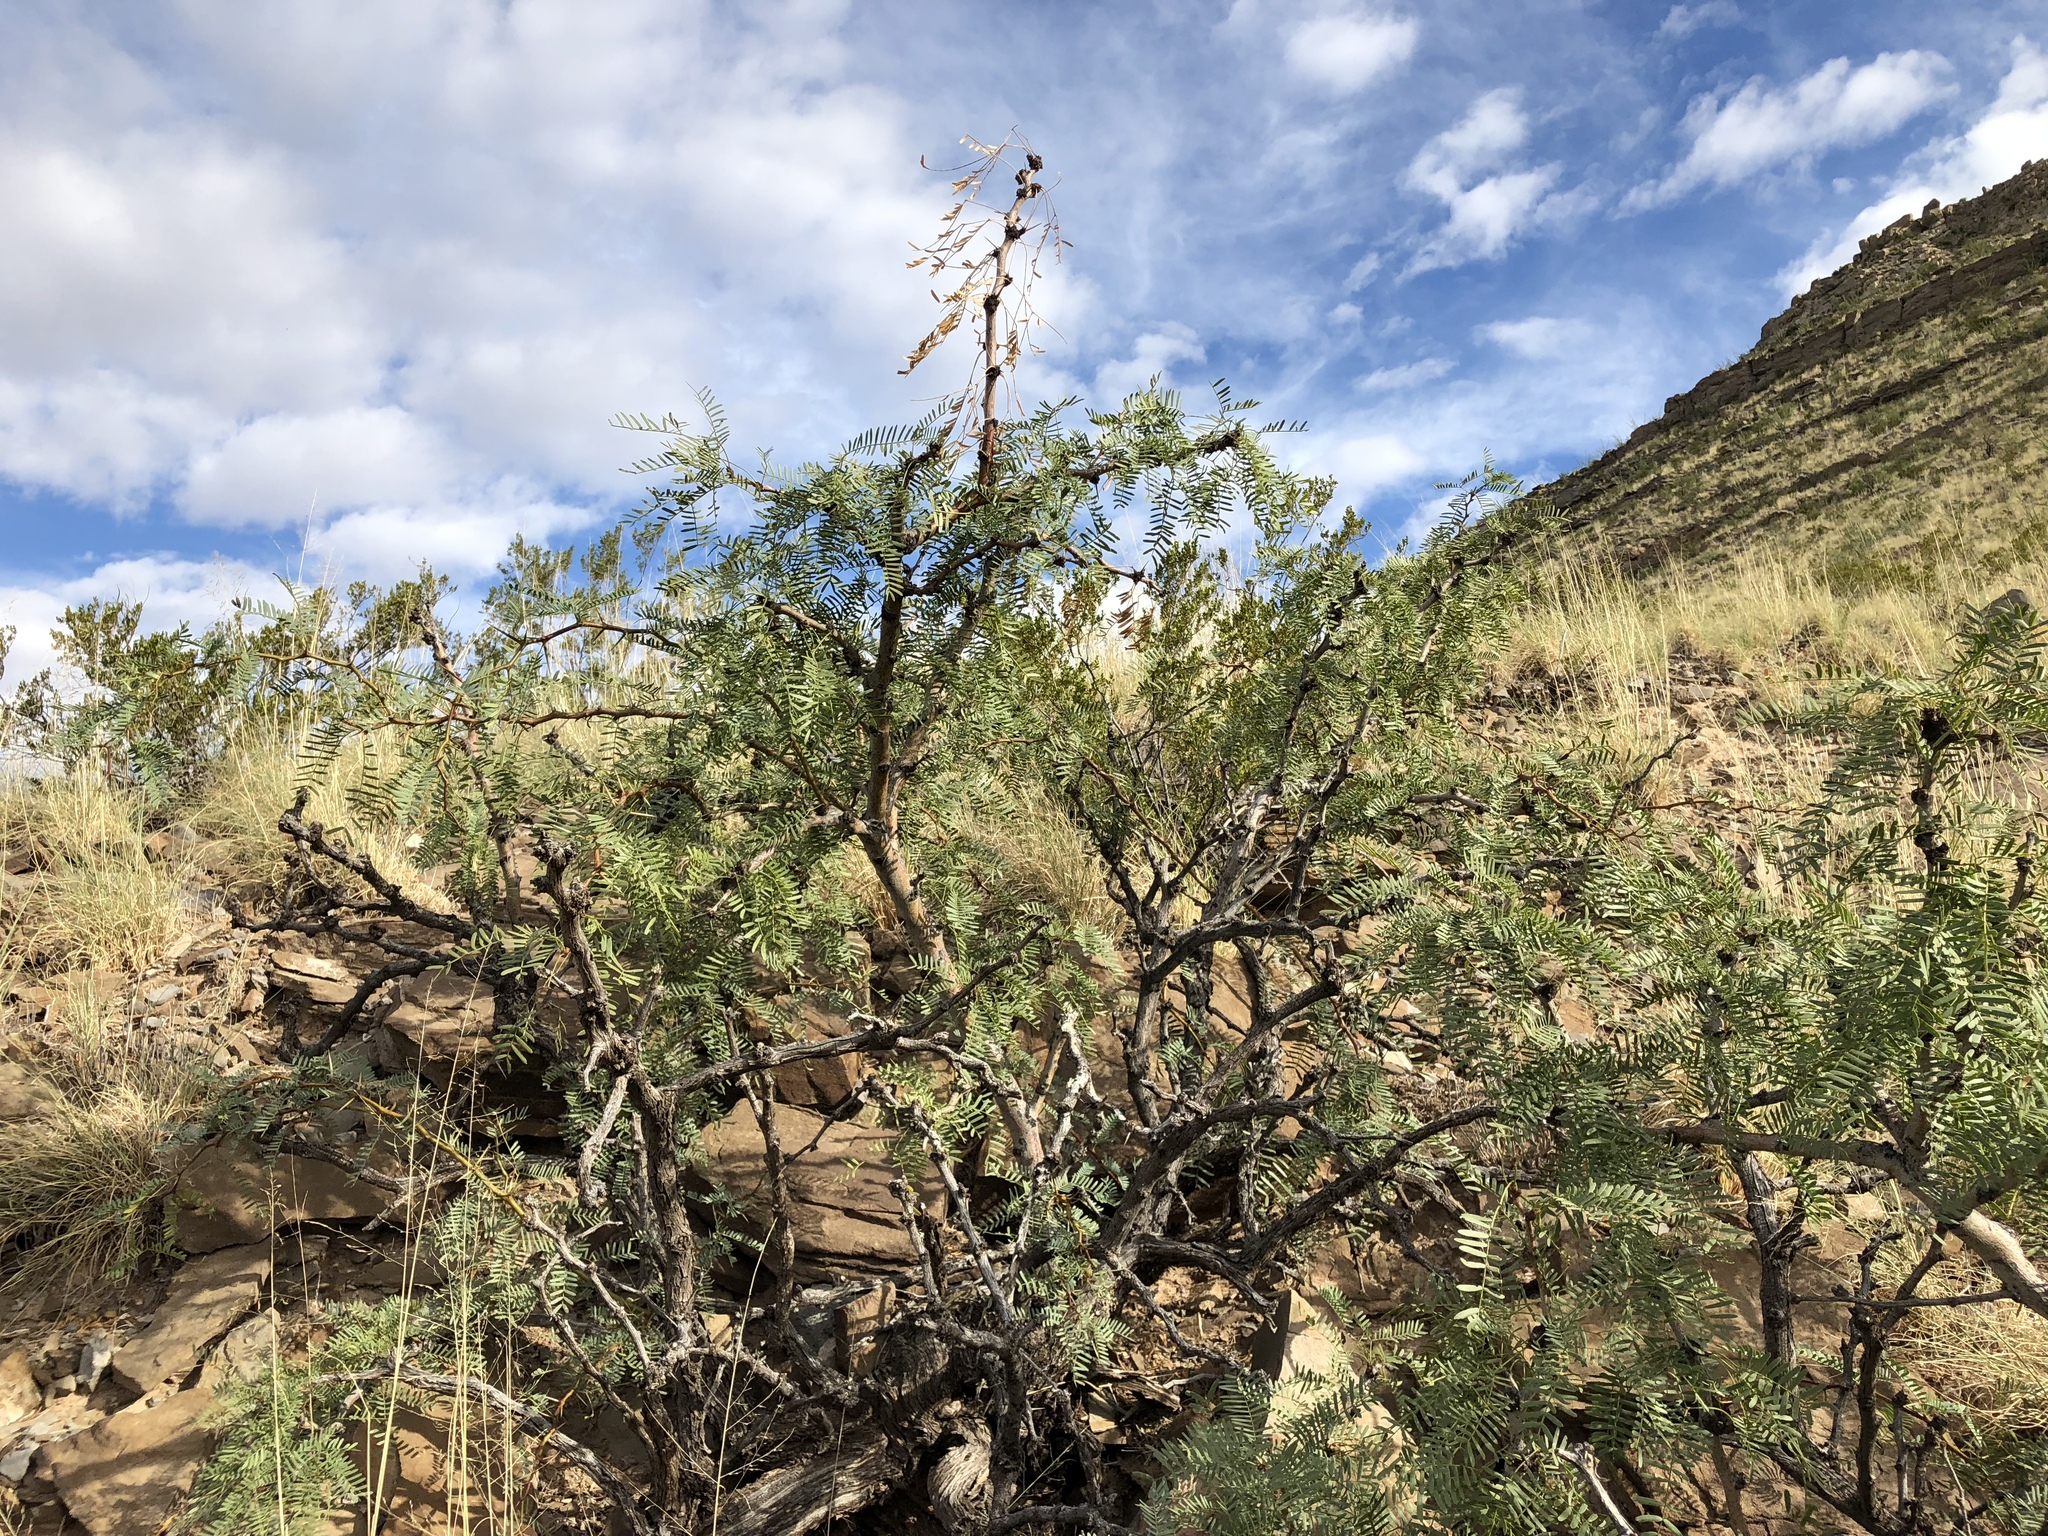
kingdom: Plantae
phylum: Tracheophyta
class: Magnoliopsida
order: Fabales
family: Fabaceae
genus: Prosopis
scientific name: Prosopis glandulosa
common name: Honey mesquite
